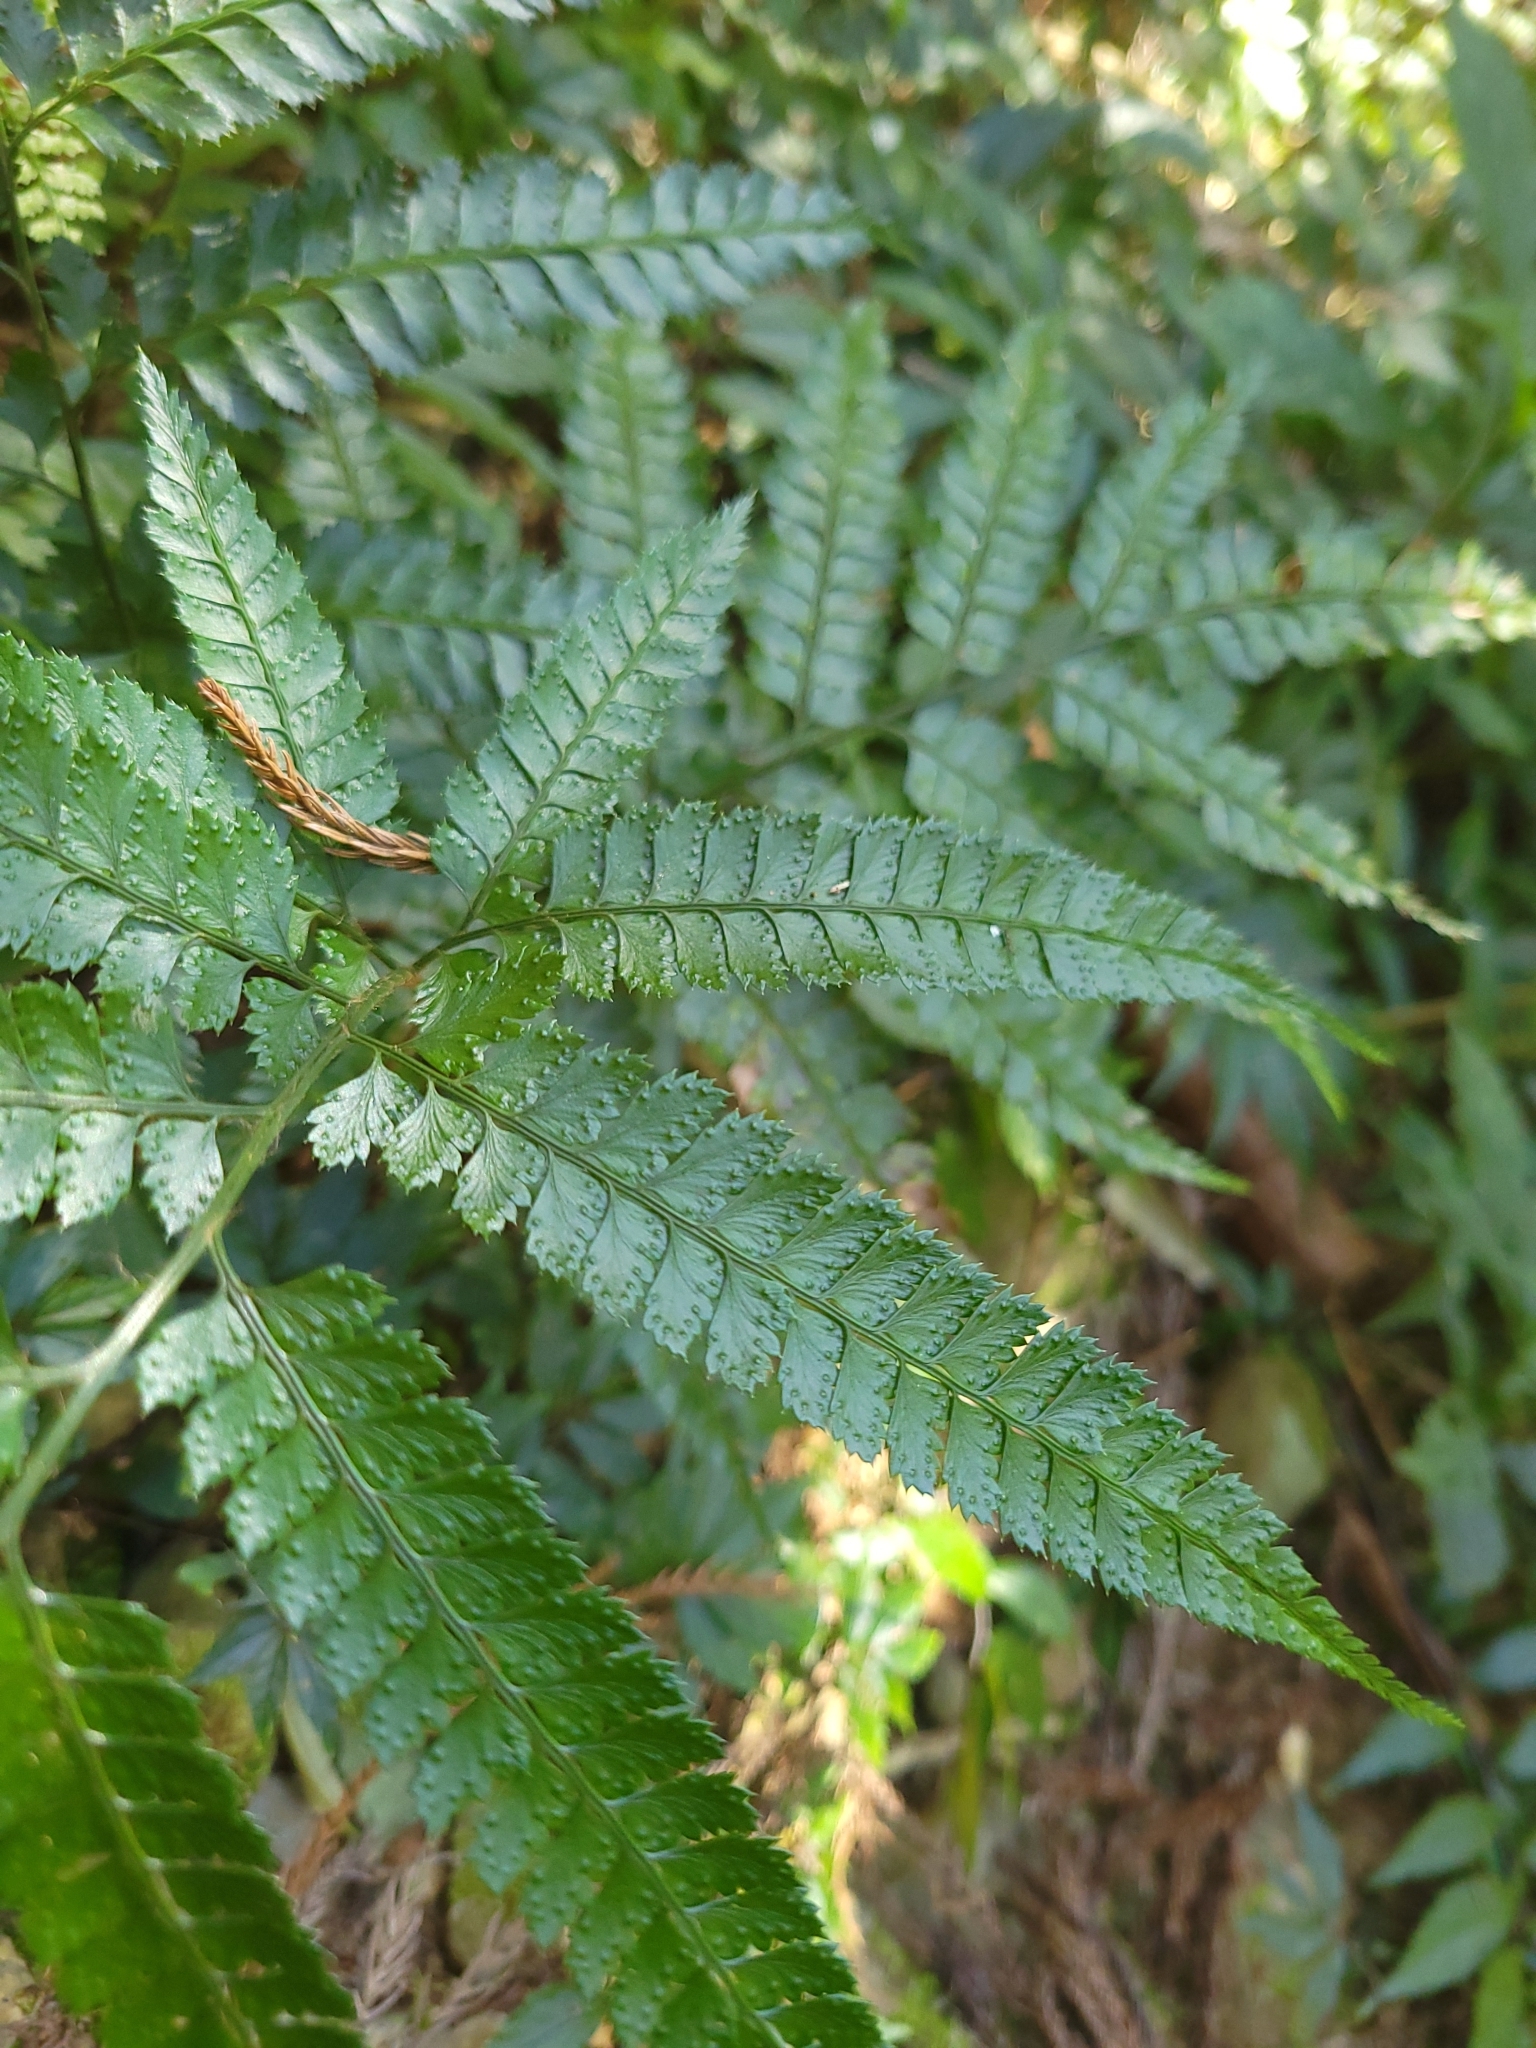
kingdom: Plantae
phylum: Tracheophyta
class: Polypodiopsida
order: Polypodiales
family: Dryopteridaceae
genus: Arachniodes
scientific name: Arachniodes amabilis
